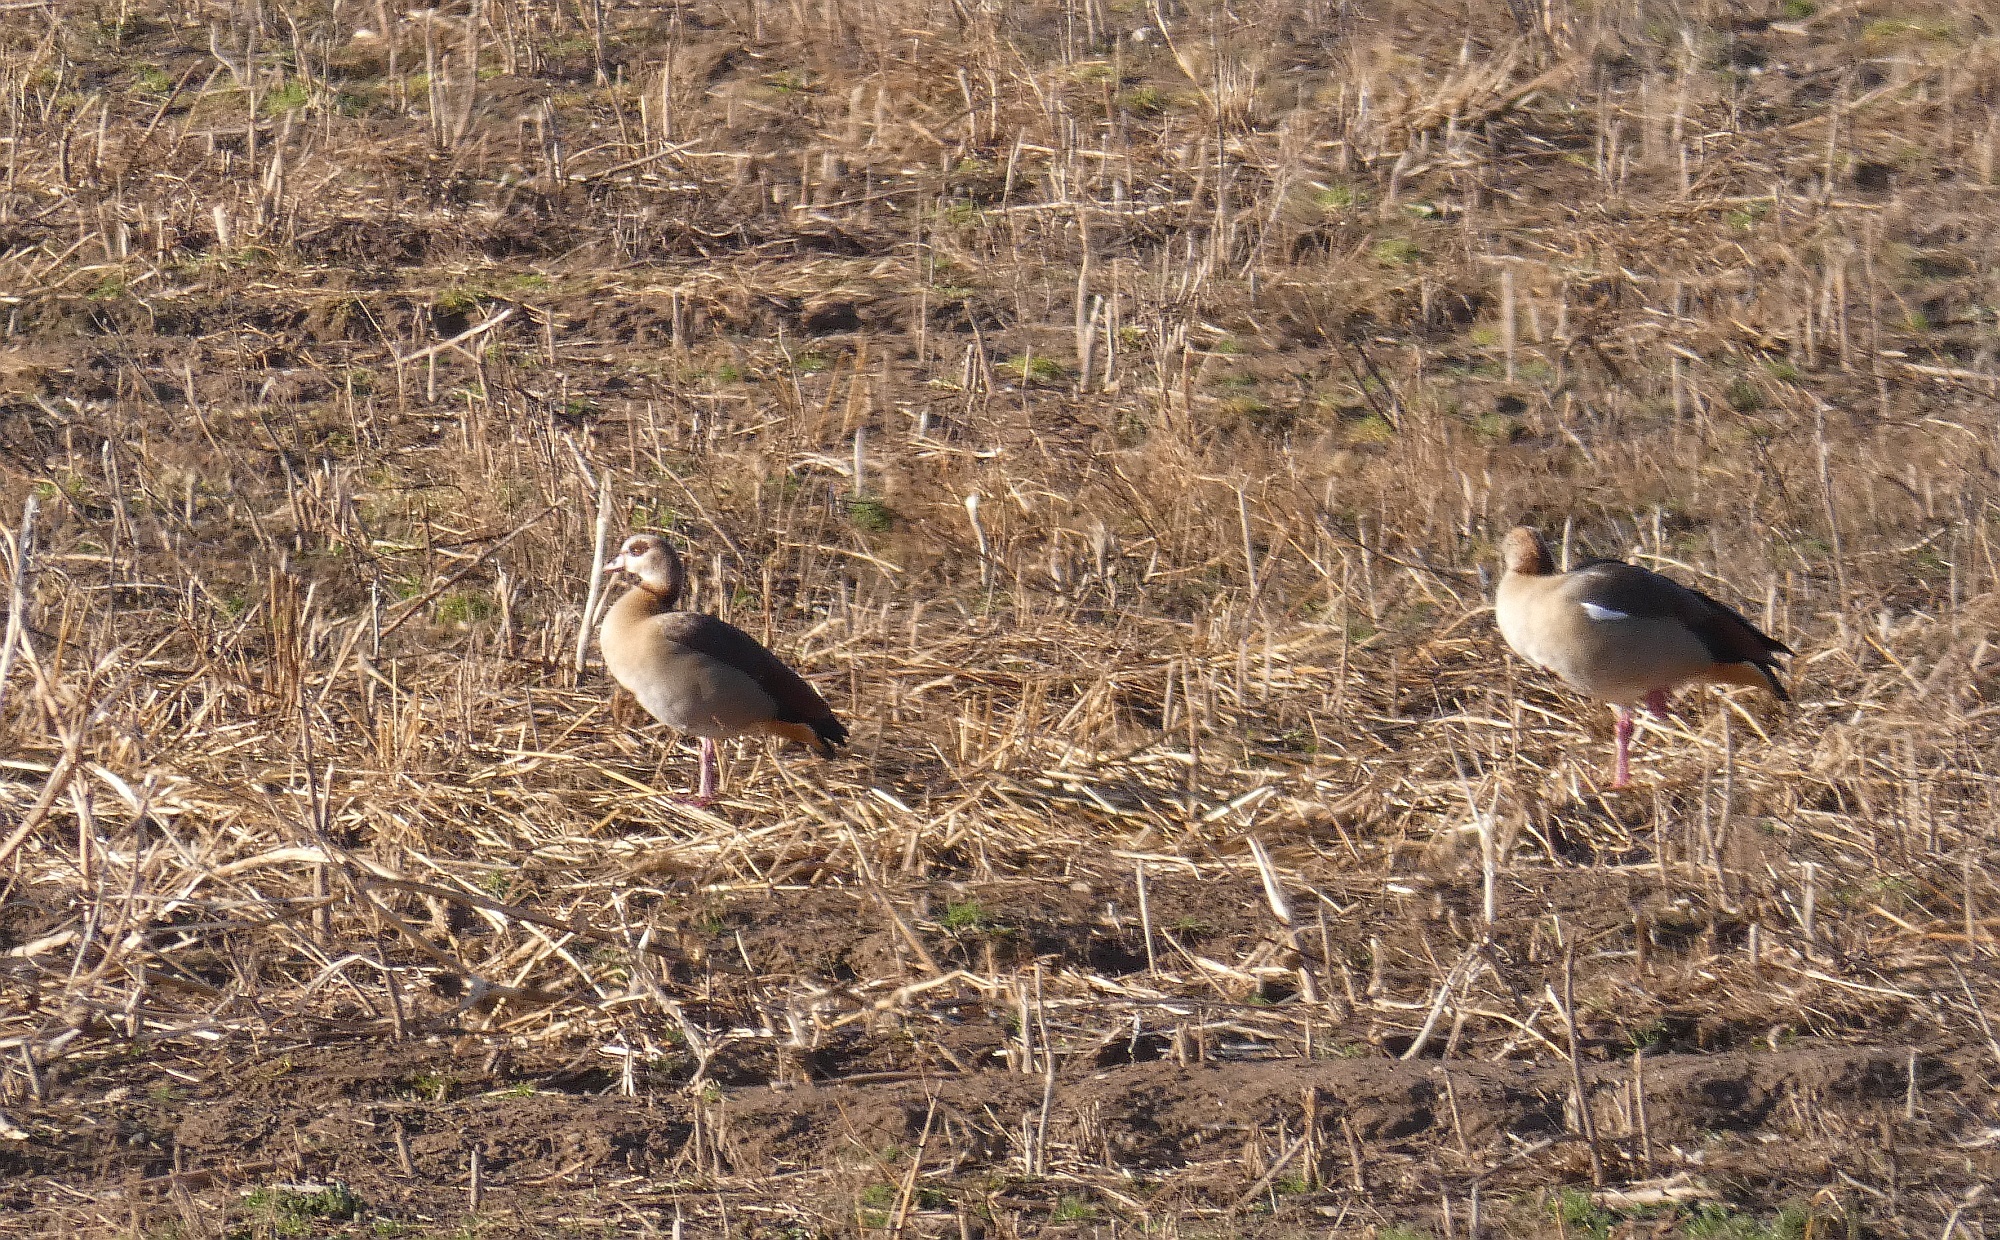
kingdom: Animalia
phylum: Chordata
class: Aves
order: Anseriformes
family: Anatidae
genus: Alopochen
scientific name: Alopochen aegyptiaca
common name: Egyptian goose
